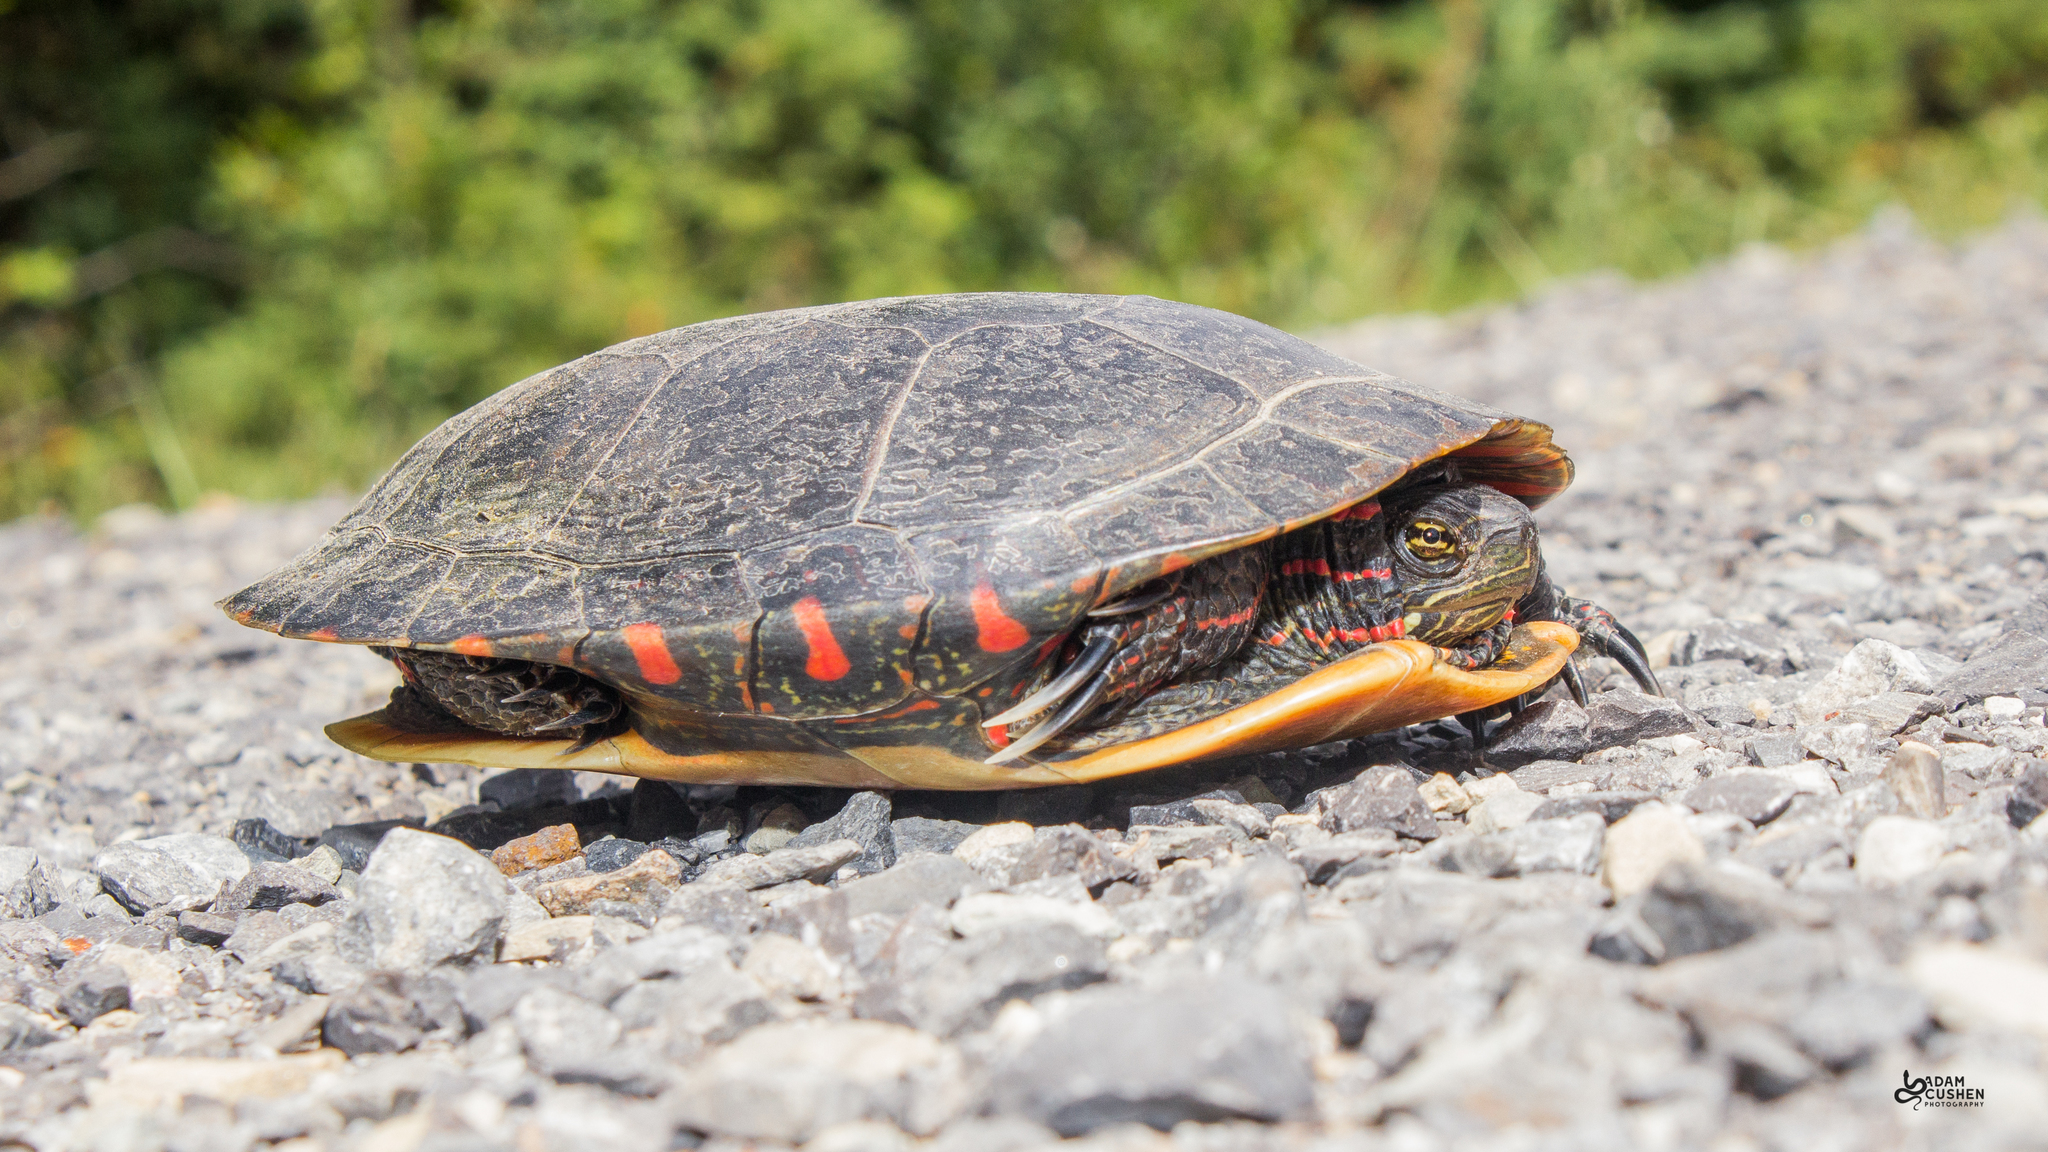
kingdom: Animalia
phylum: Chordata
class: Testudines
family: Emydidae
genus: Chrysemys
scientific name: Chrysemys picta
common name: Painted turtle
